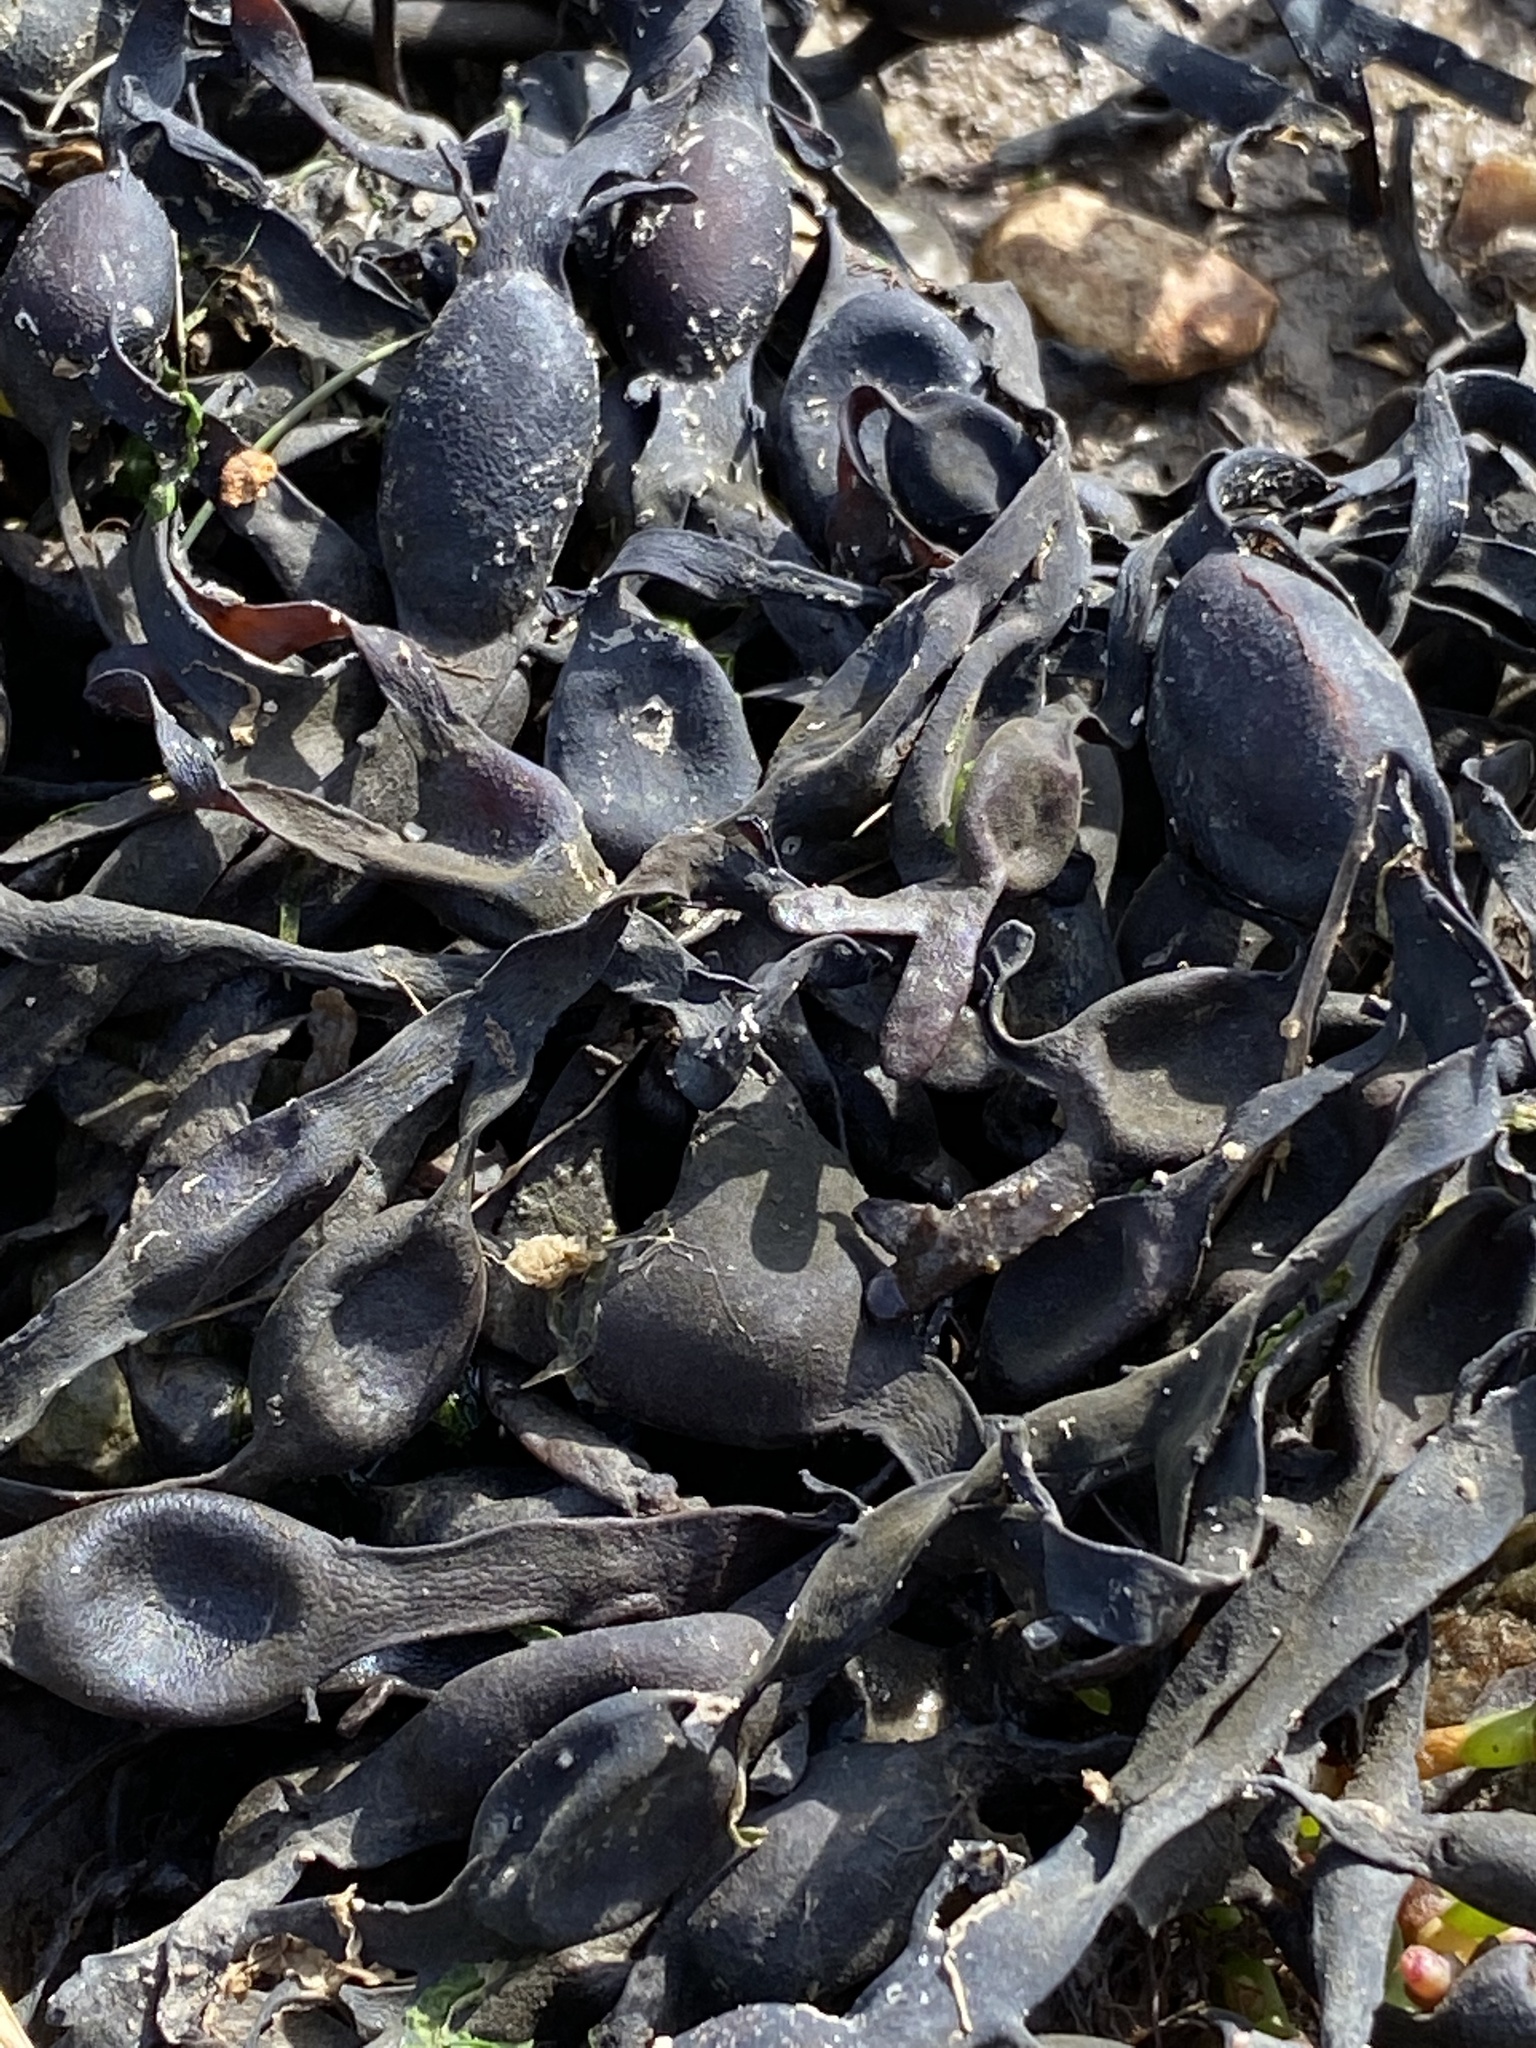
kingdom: Chromista
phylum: Ochrophyta
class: Phaeophyceae
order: Fucales
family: Fucaceae
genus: Ascophyllum
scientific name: Ascophyllum nodosum
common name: Knotted wrack
